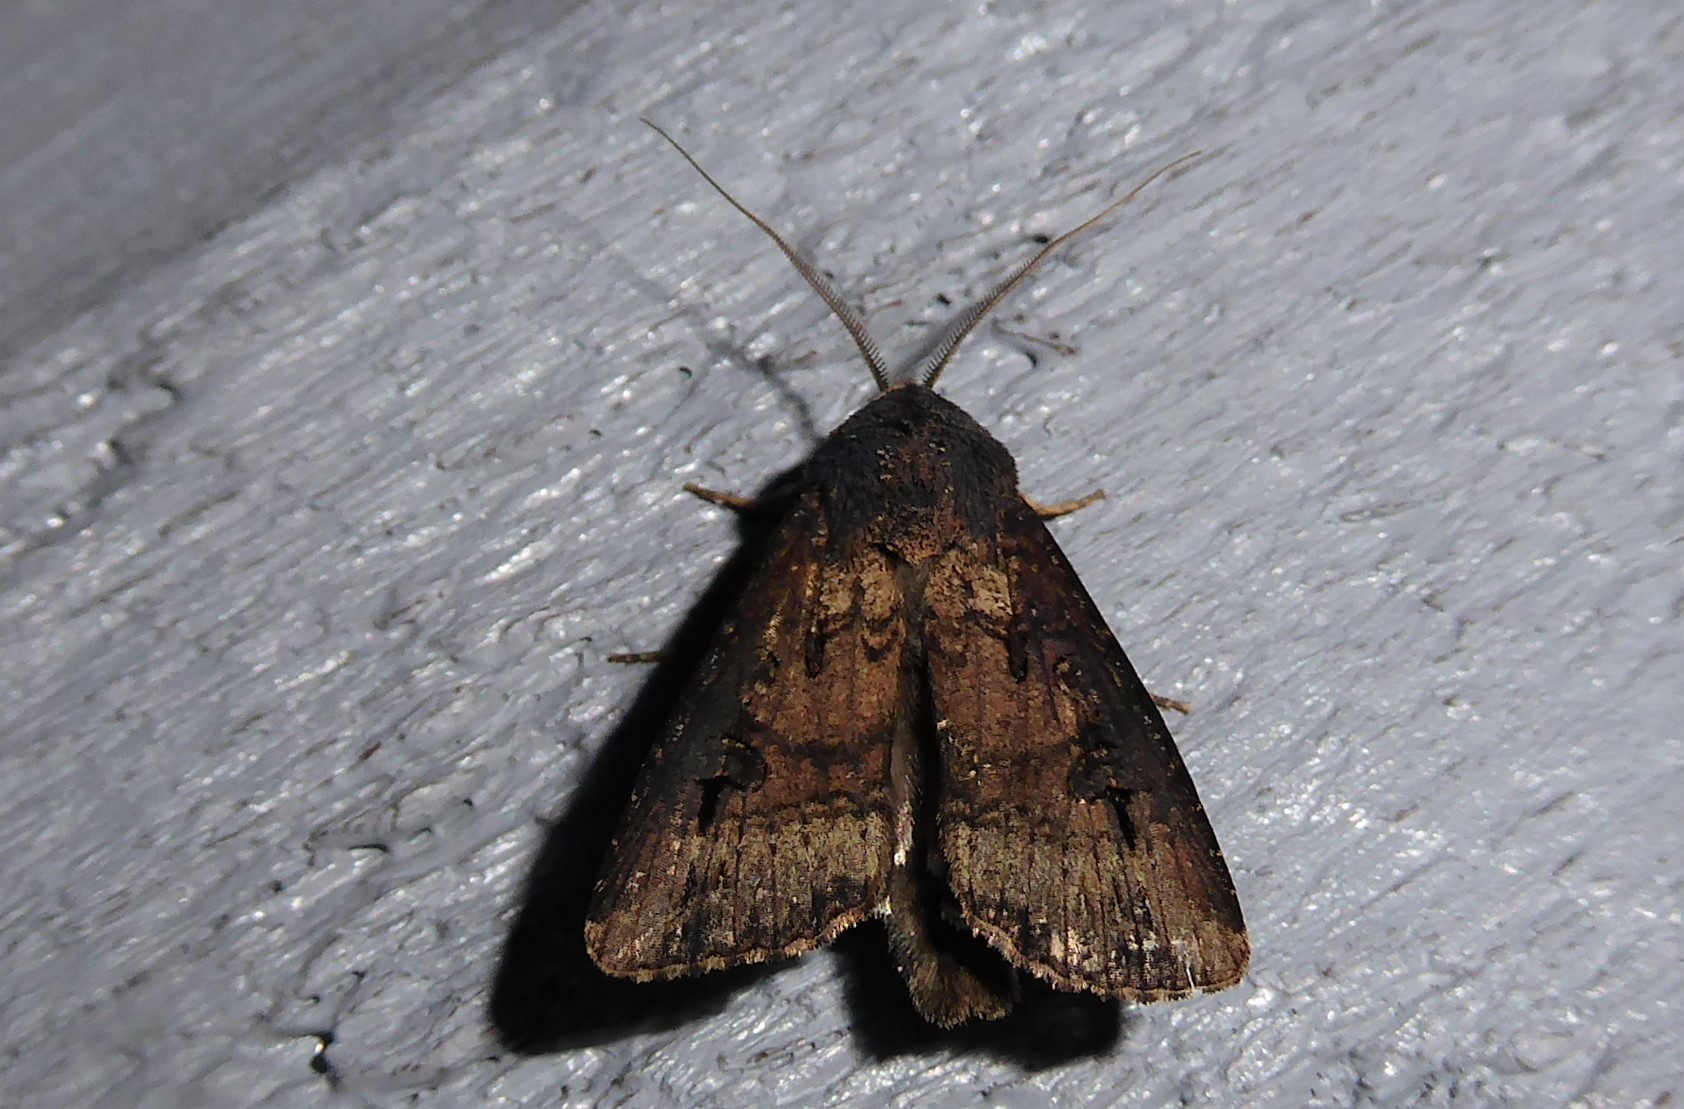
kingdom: Animalia
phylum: Arthropoda
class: Insecta
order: Lepidoptera
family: Noctuidae
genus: Agrotis
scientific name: Agrotis ipsilon
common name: Dark sword-grass
